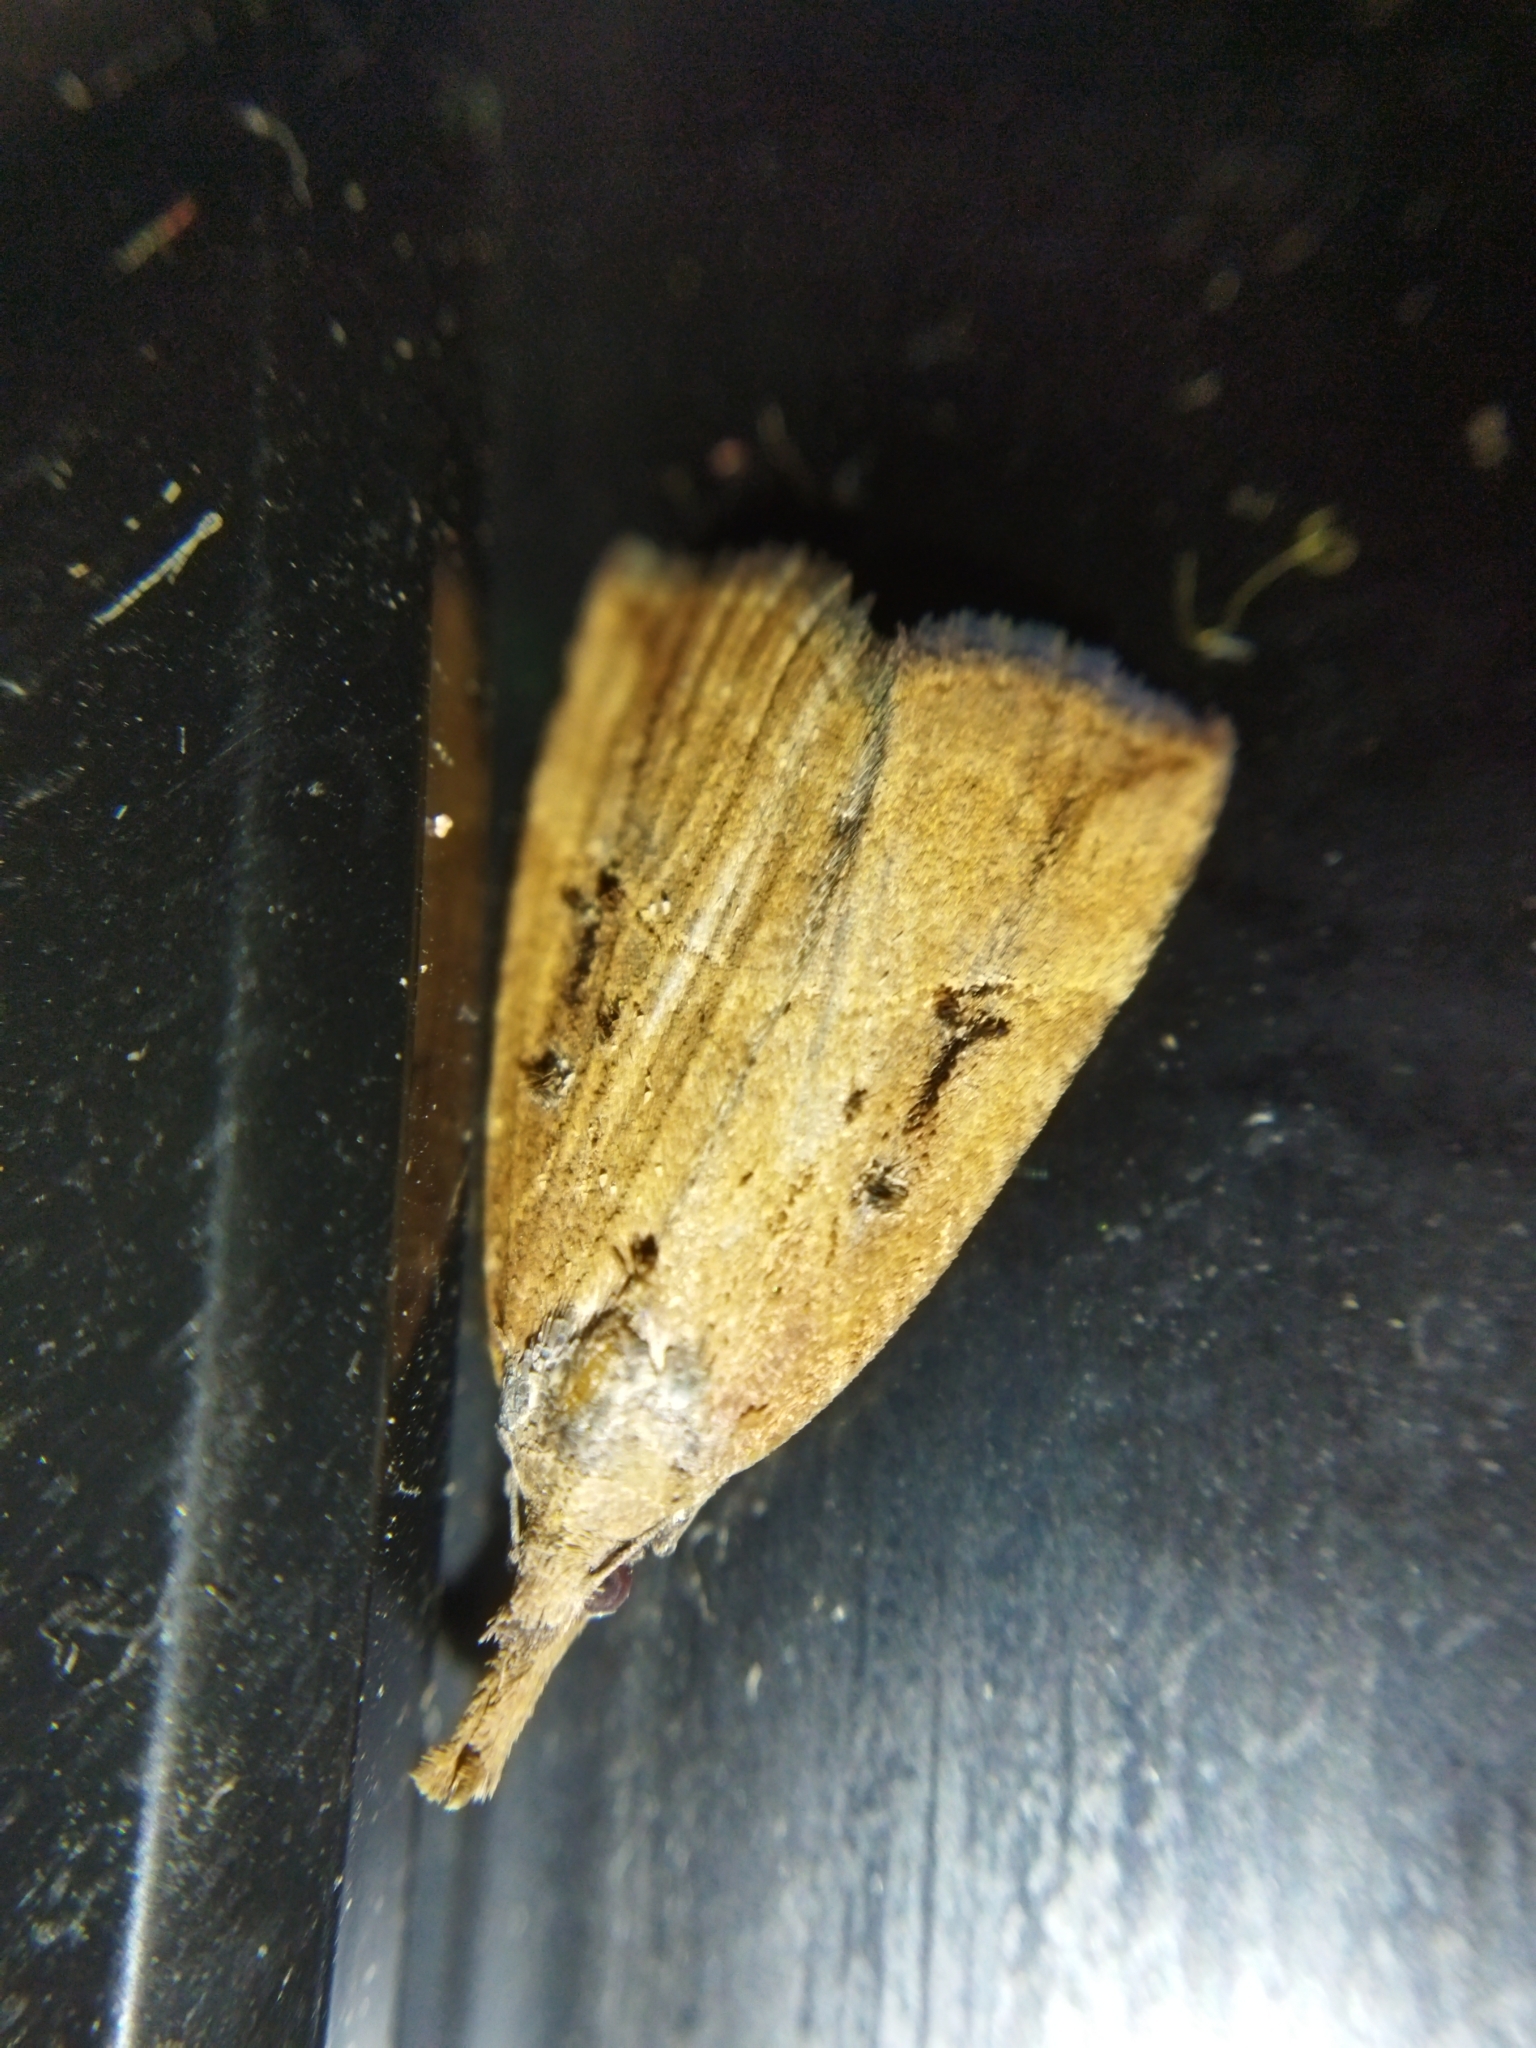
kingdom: Animalia
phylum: Arthropoda
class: Insecta
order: Lepidoptera
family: Erebidae
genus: Hypena
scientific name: Hypena rostralis
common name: Buttoned snout
